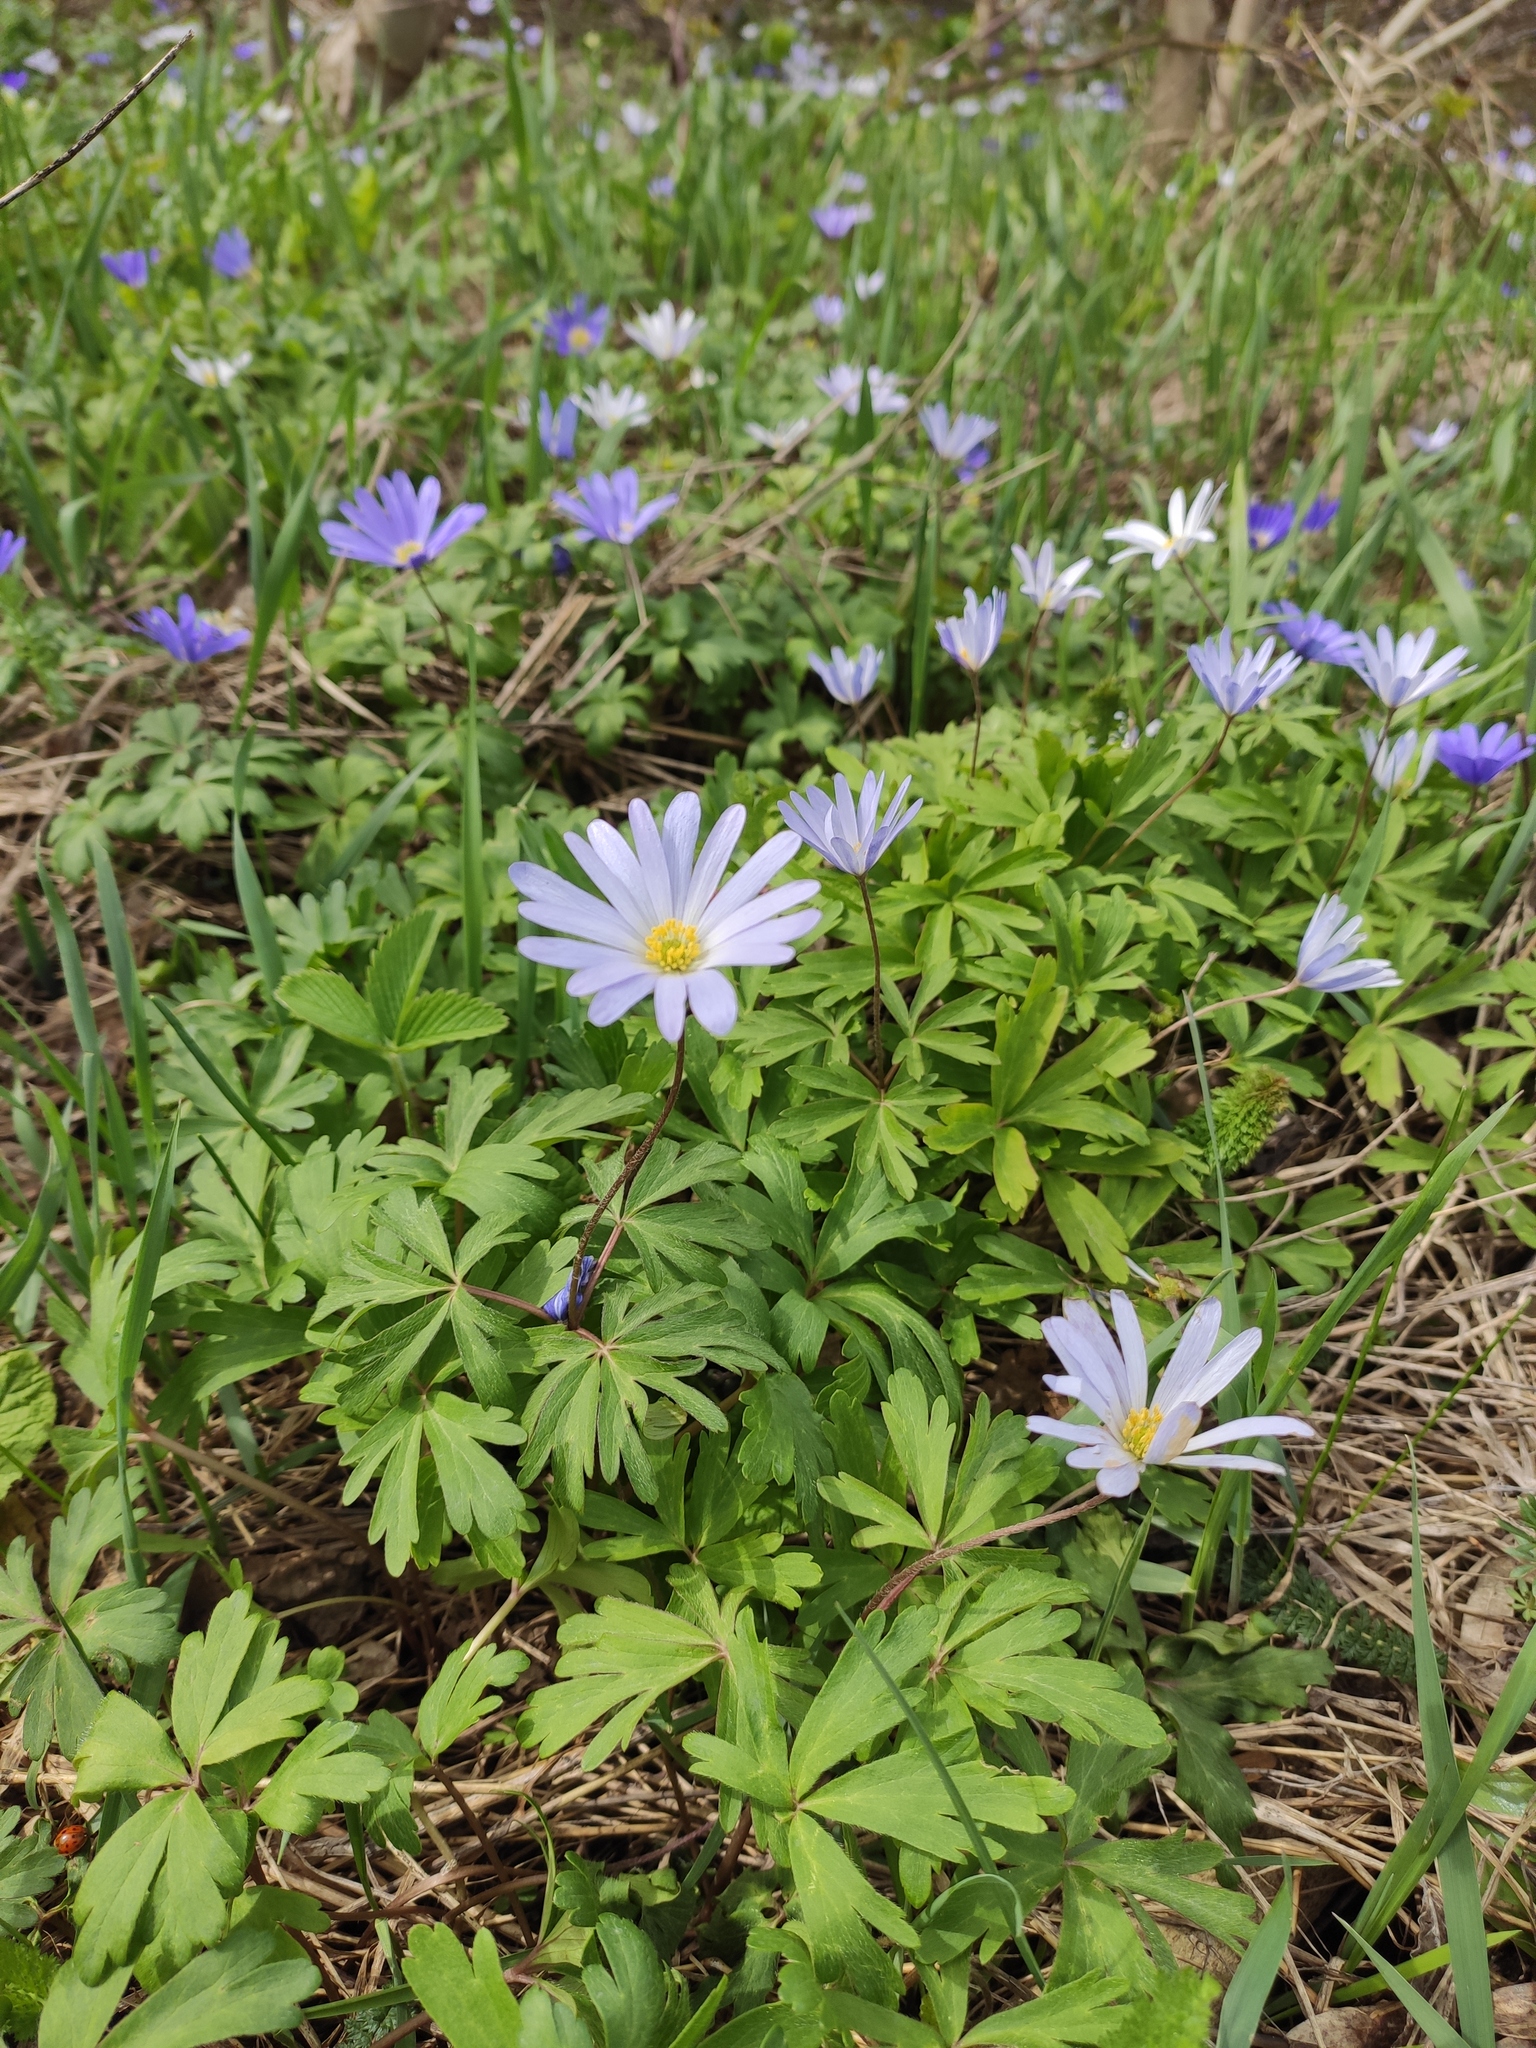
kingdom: Plantae
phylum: Tracheophyta
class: Magnoliopsida
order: Ranunculales
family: Ranunculaceae
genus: Anemone
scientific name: Anemone blanda
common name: Balkan anemone
